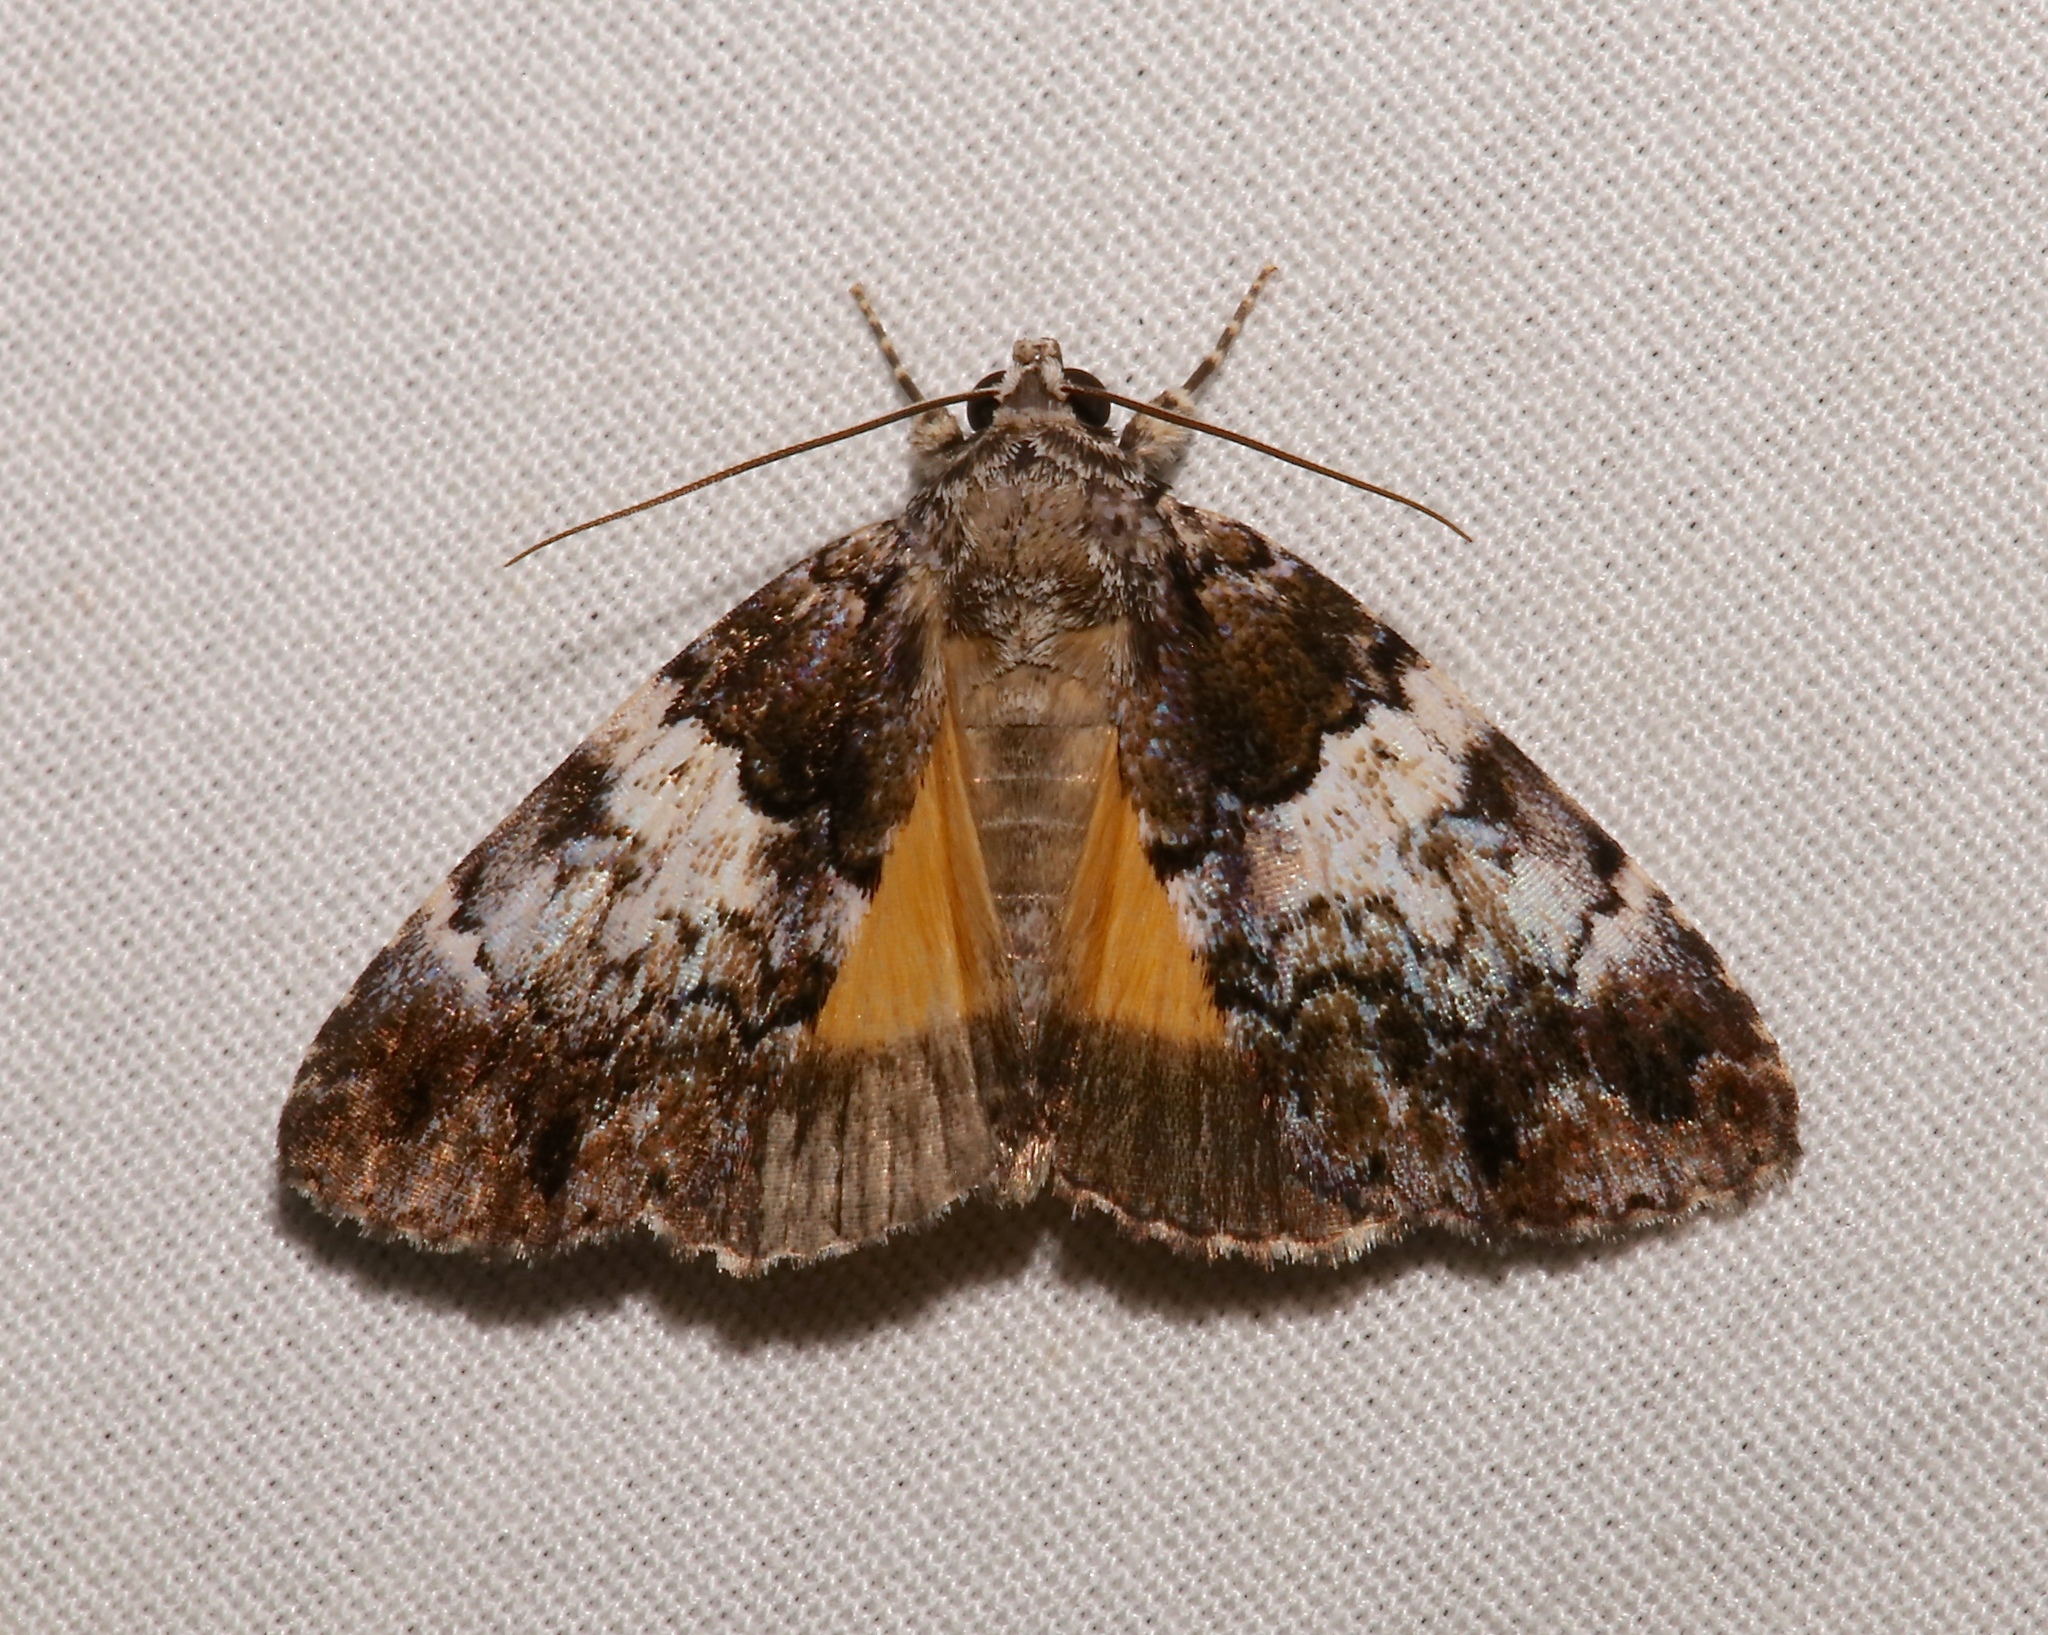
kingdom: Animalia
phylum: Arthropoda
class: Insecta
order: Lepidoptera
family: Erebidae
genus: Allotria
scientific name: Allotria elonympha
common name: False underwing
